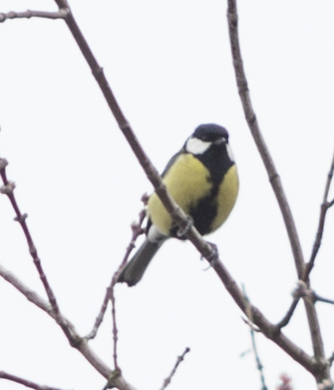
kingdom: Animalia
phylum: Chordata
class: Aves
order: Passeriformes
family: Paridae
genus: Parus
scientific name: Parus major
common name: Great tit
